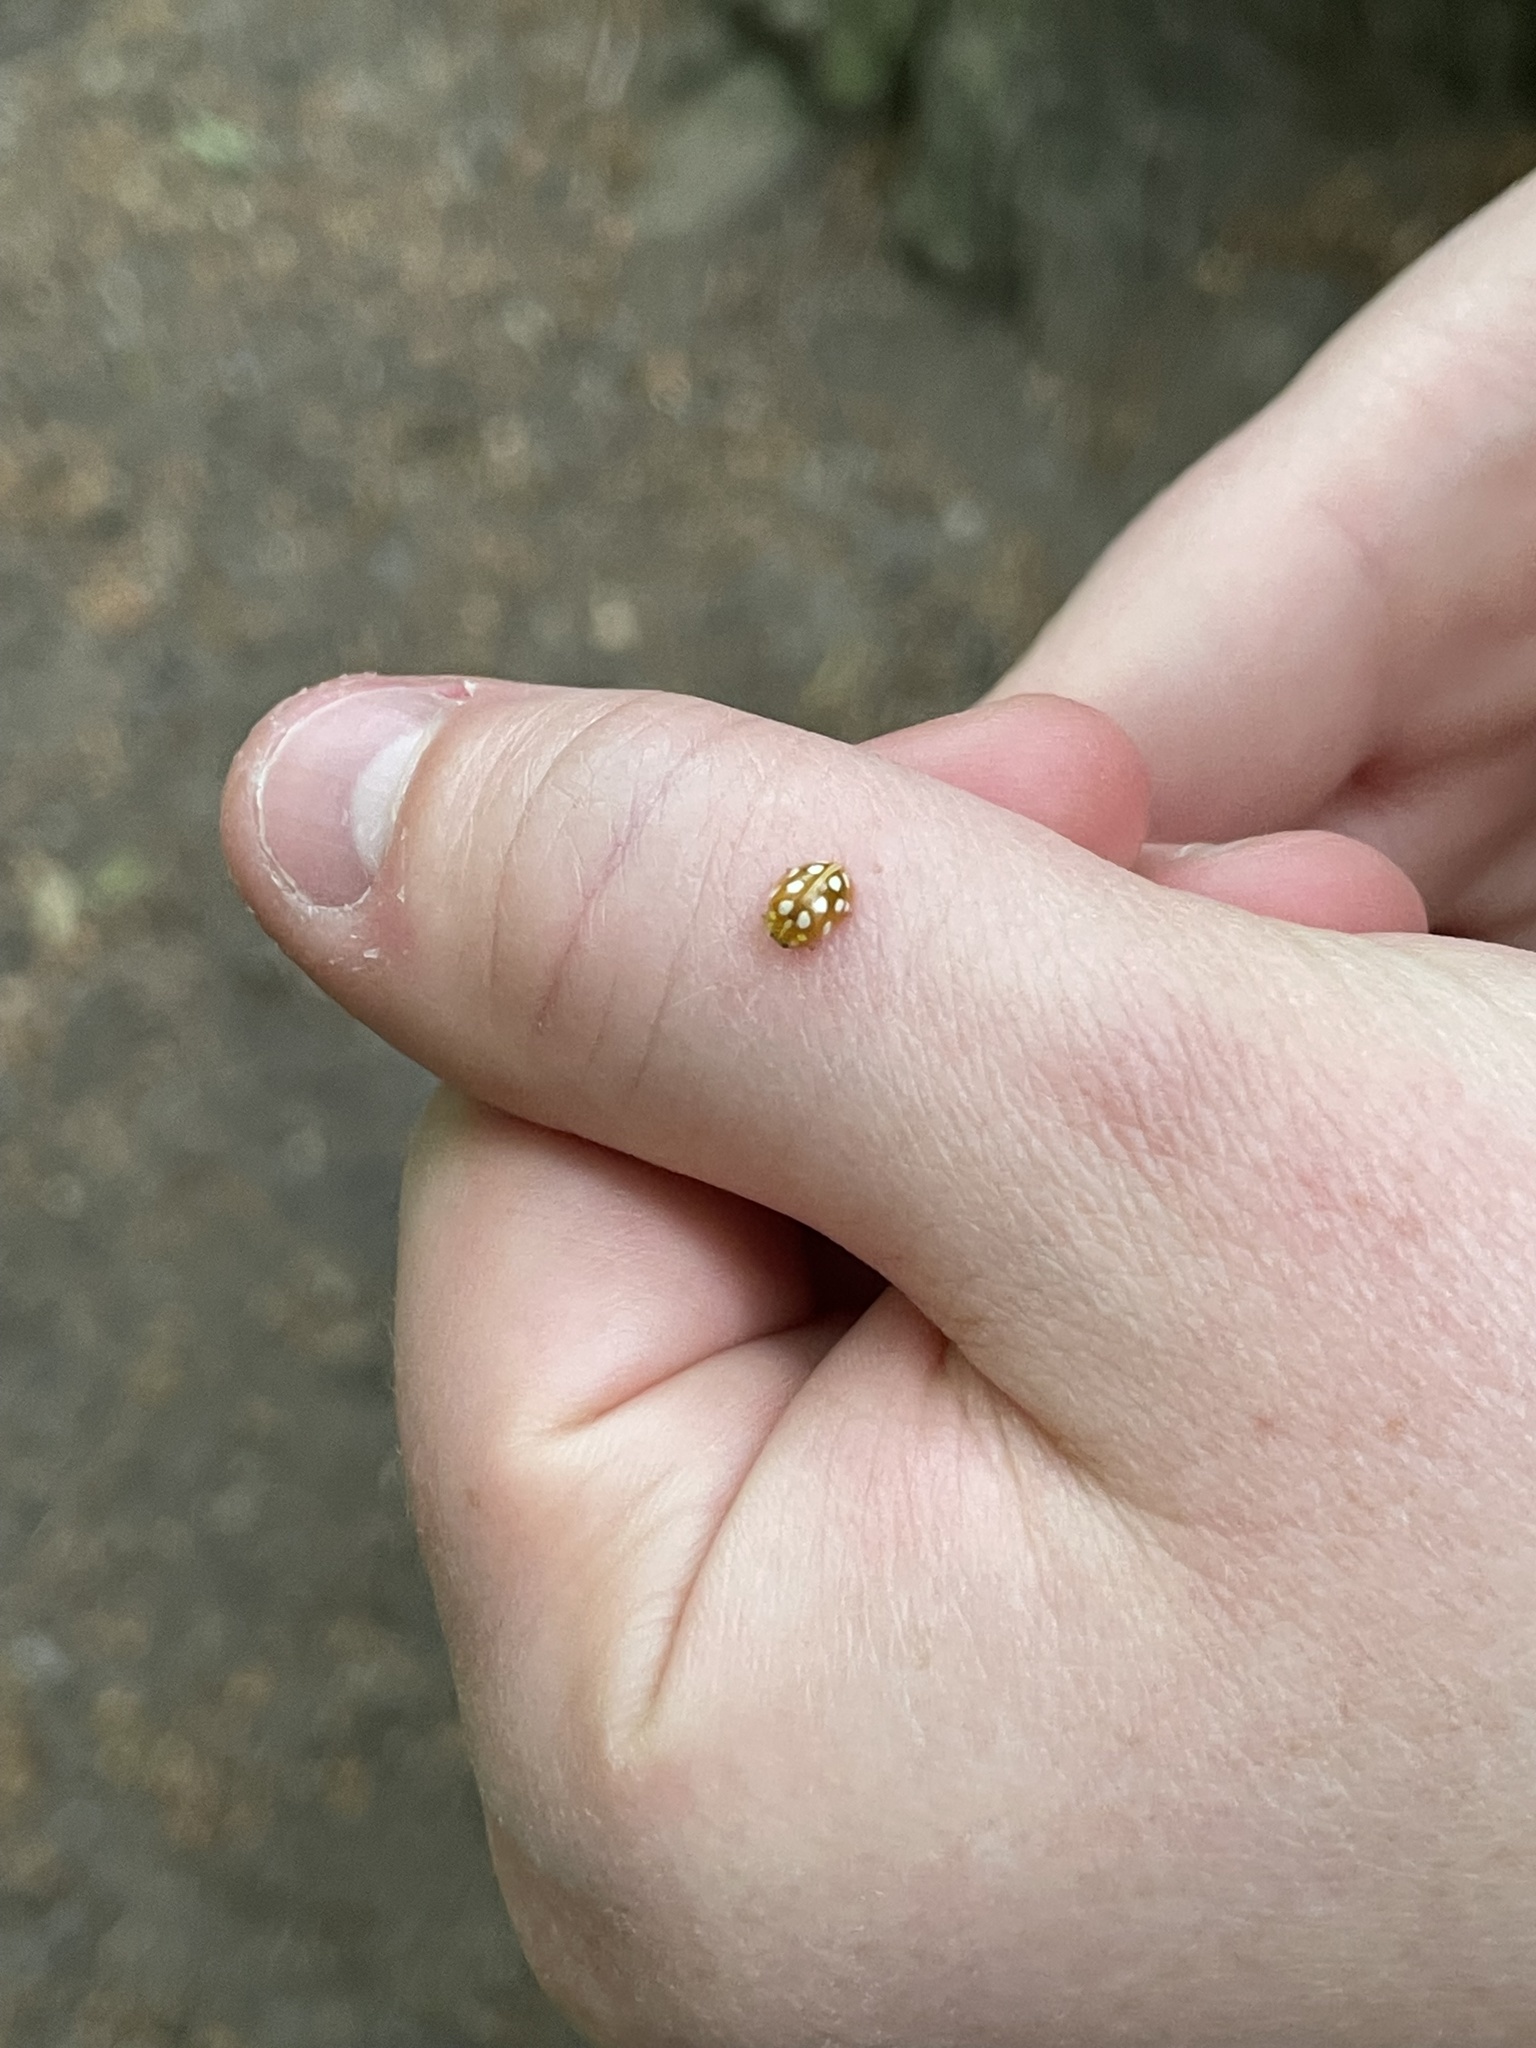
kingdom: Animalia
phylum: Arthropoda
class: Insecta
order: Coleoptera
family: Coccinellidae
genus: Halyzia
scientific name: Halyzia sedecimguttata
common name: Orange ladybird
